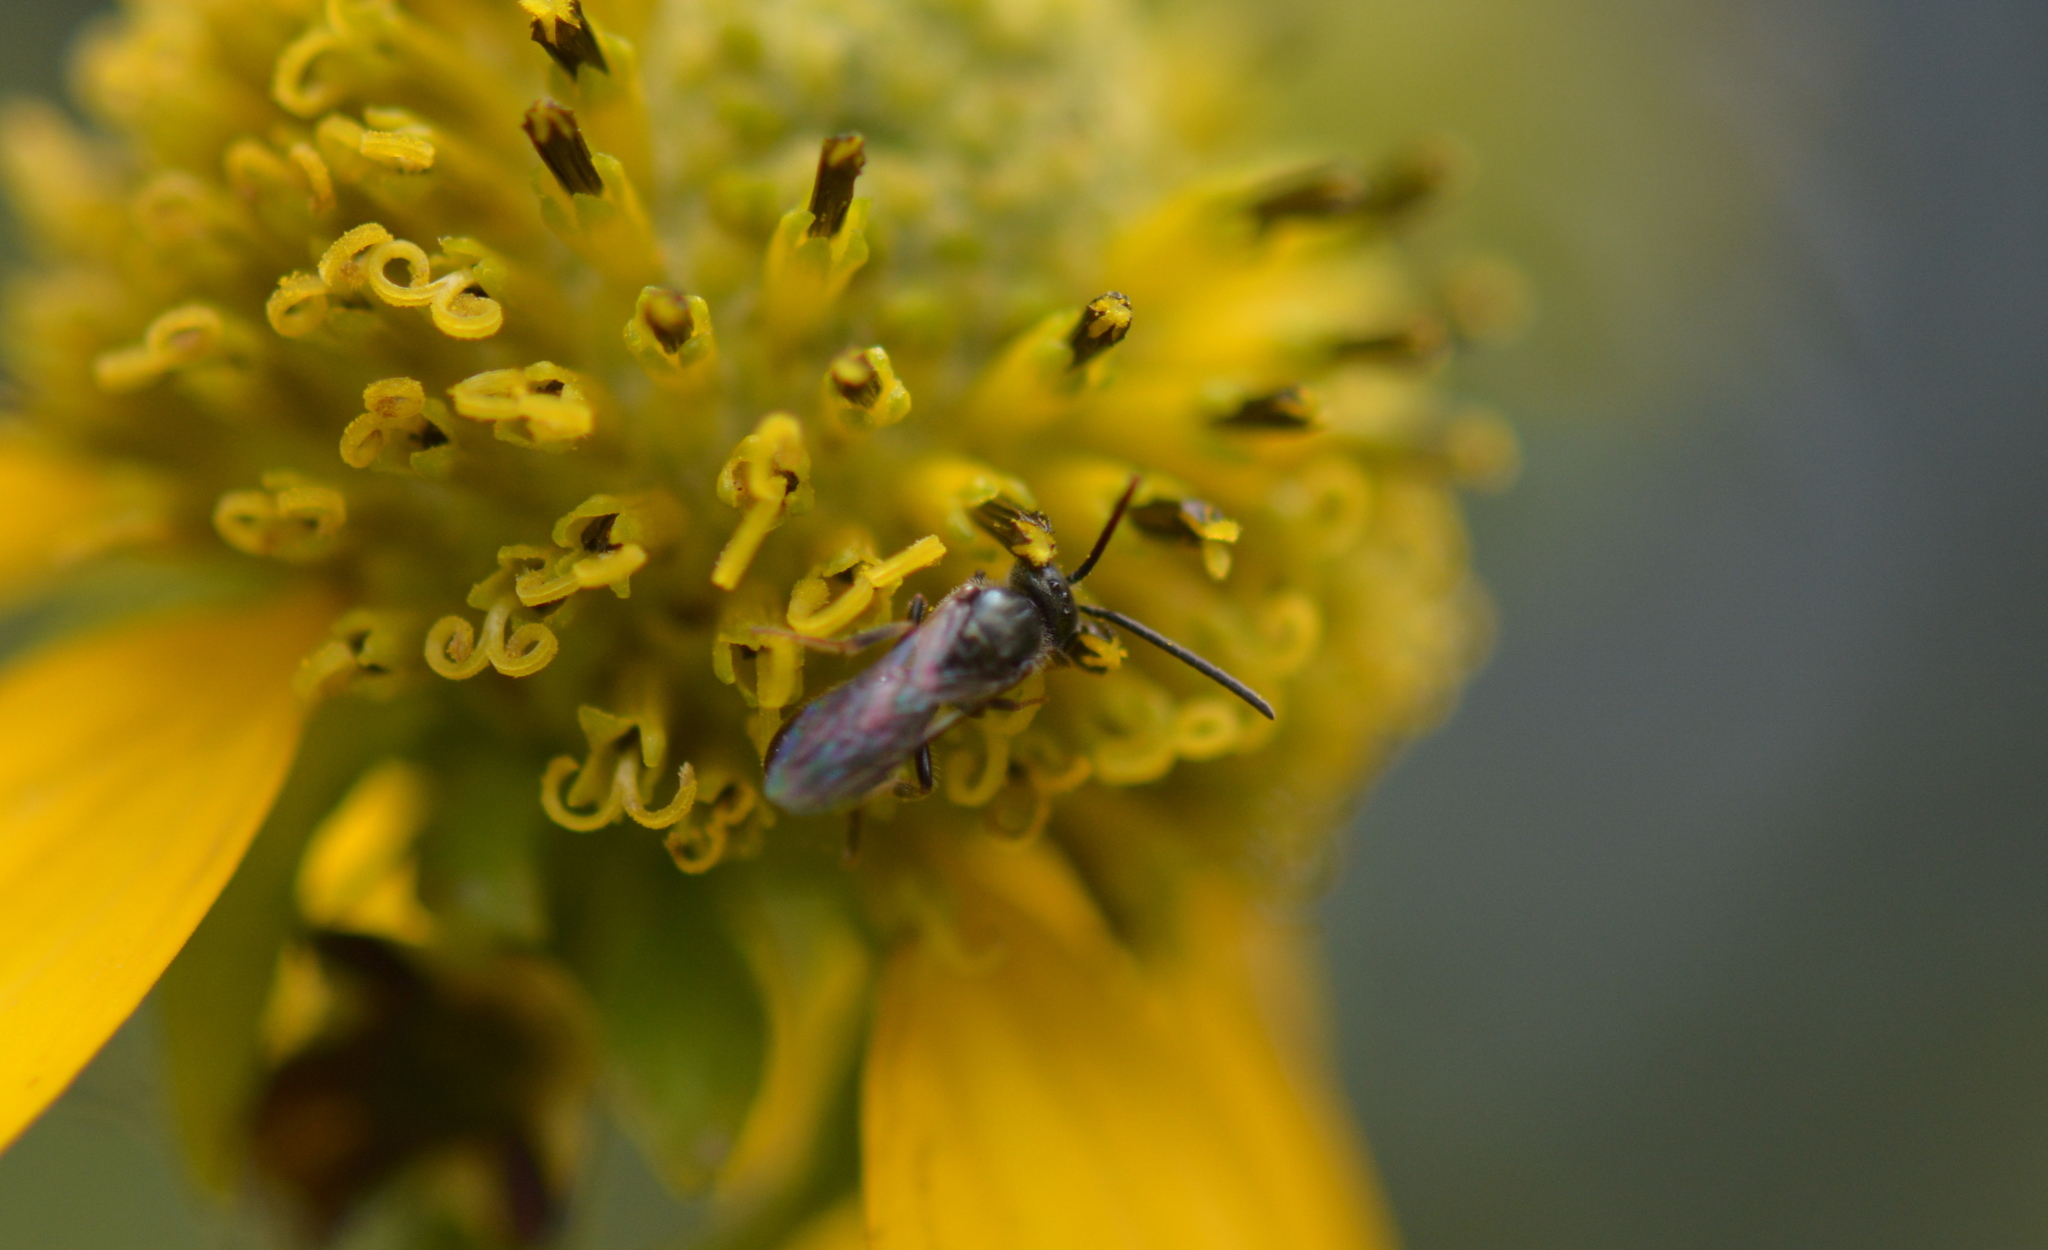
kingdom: Animalia
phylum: Arthropoda
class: Insecta
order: Hymenoptera
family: Halictidae
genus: Dialictus
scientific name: Dialictus
